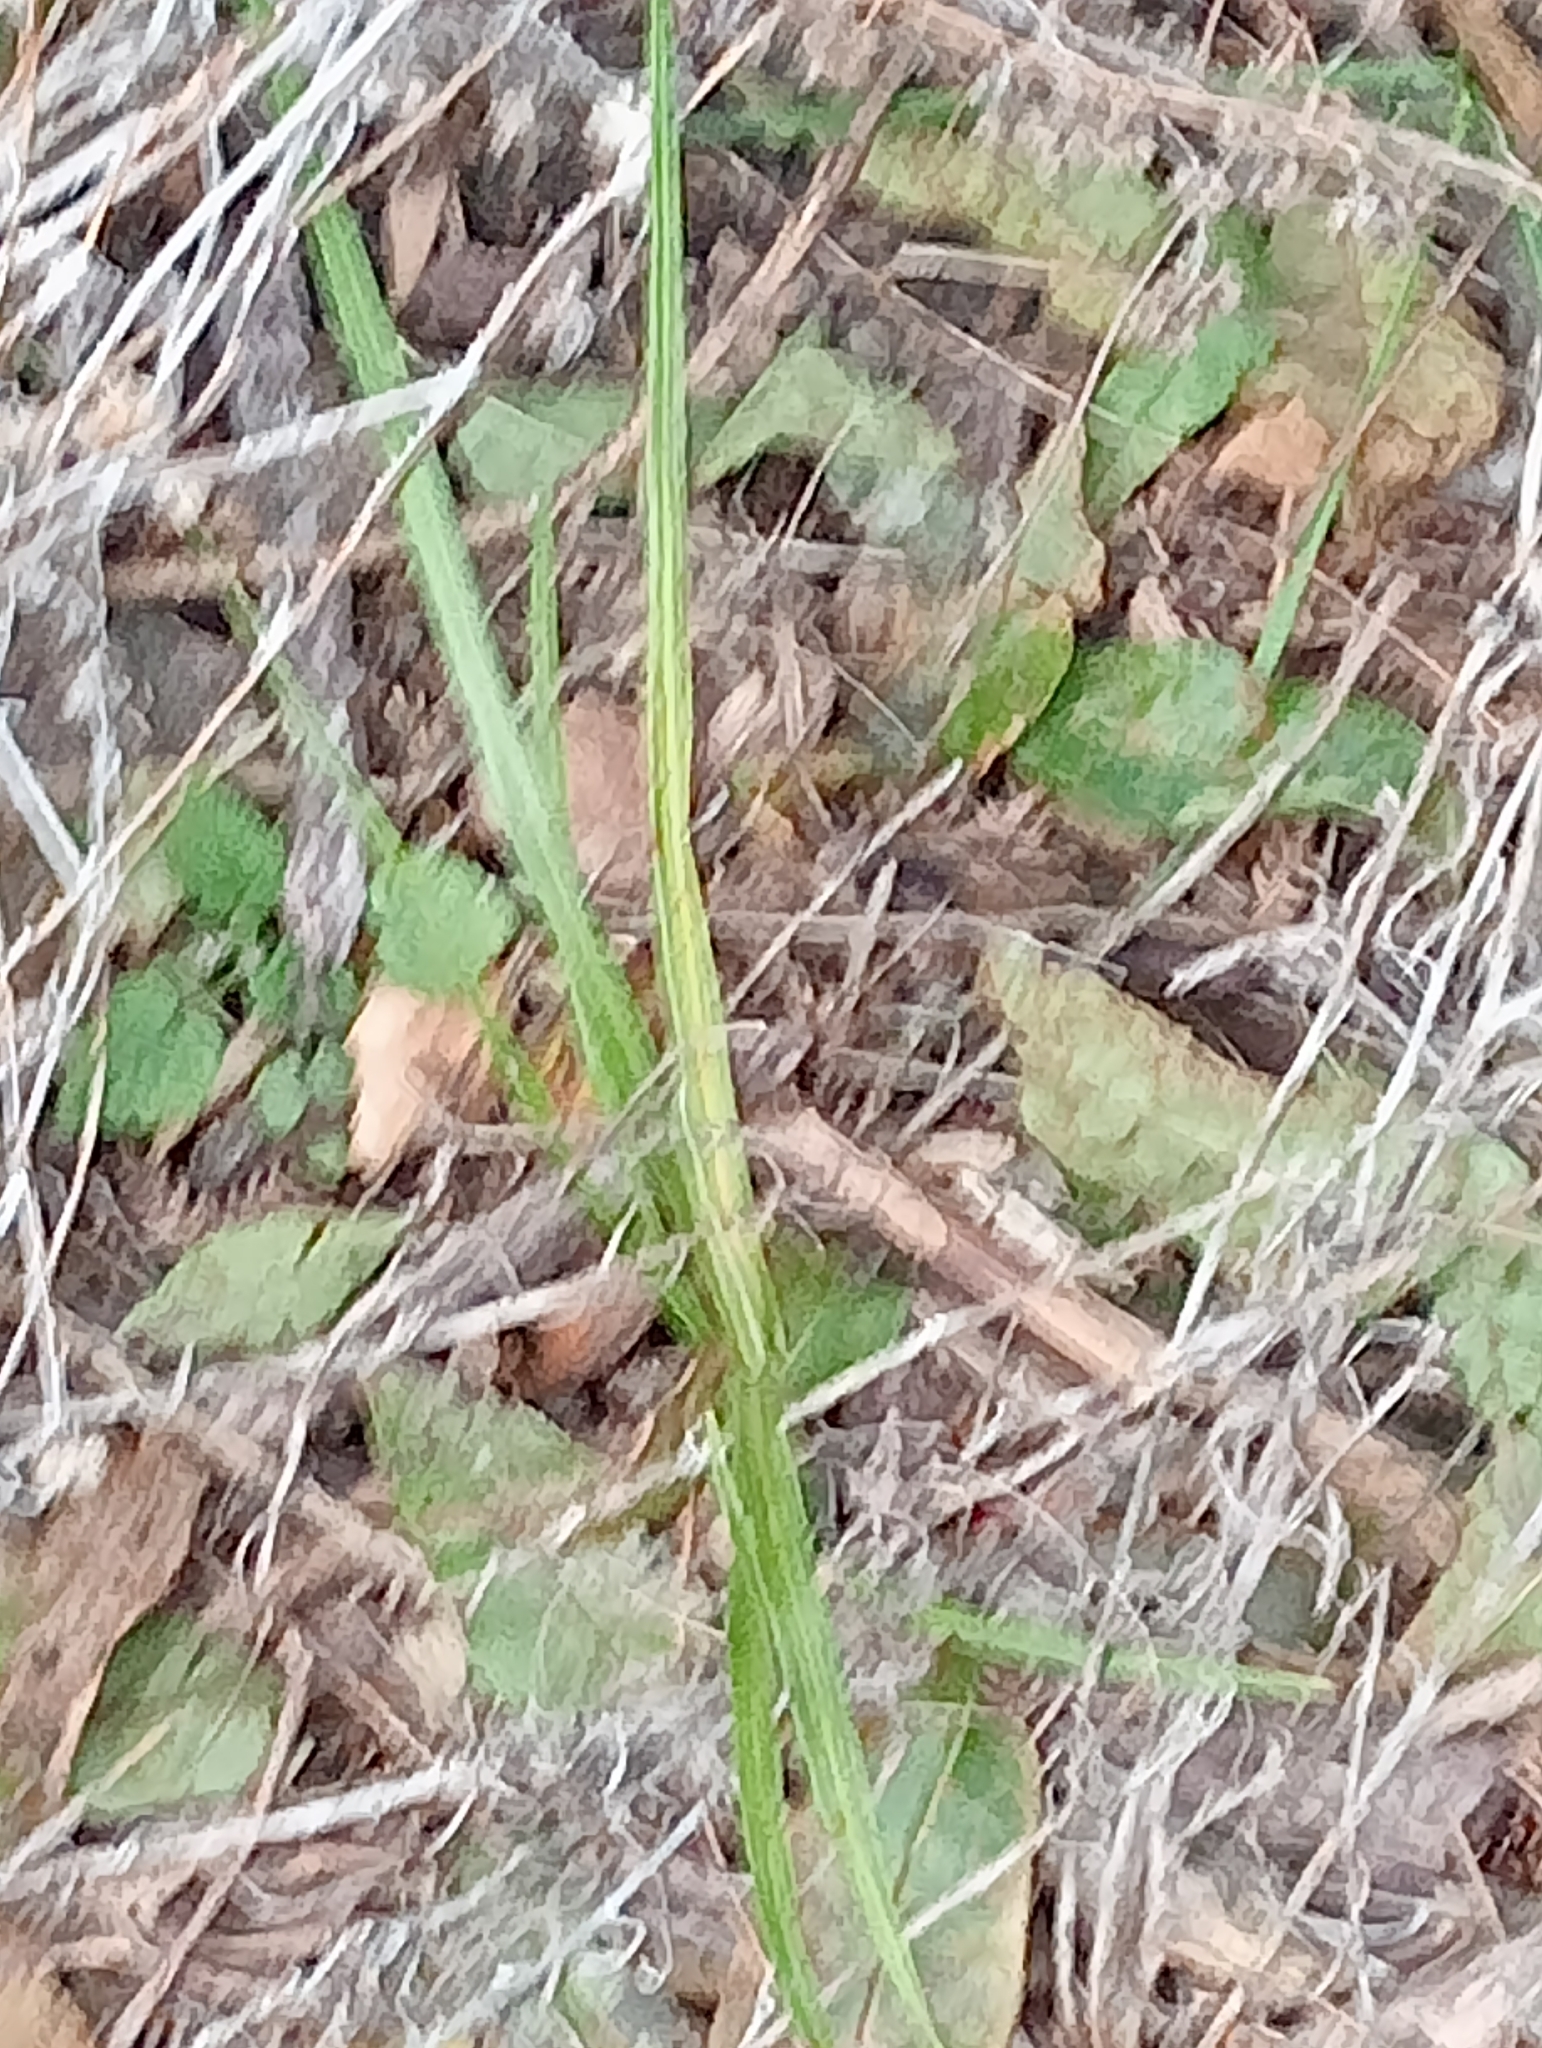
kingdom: Plantae
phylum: Tracheophyta
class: Liliopsida
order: Asparagales
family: Asparagaceae
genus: Cordyline
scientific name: Cordyline australis
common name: Cabbage-palm
